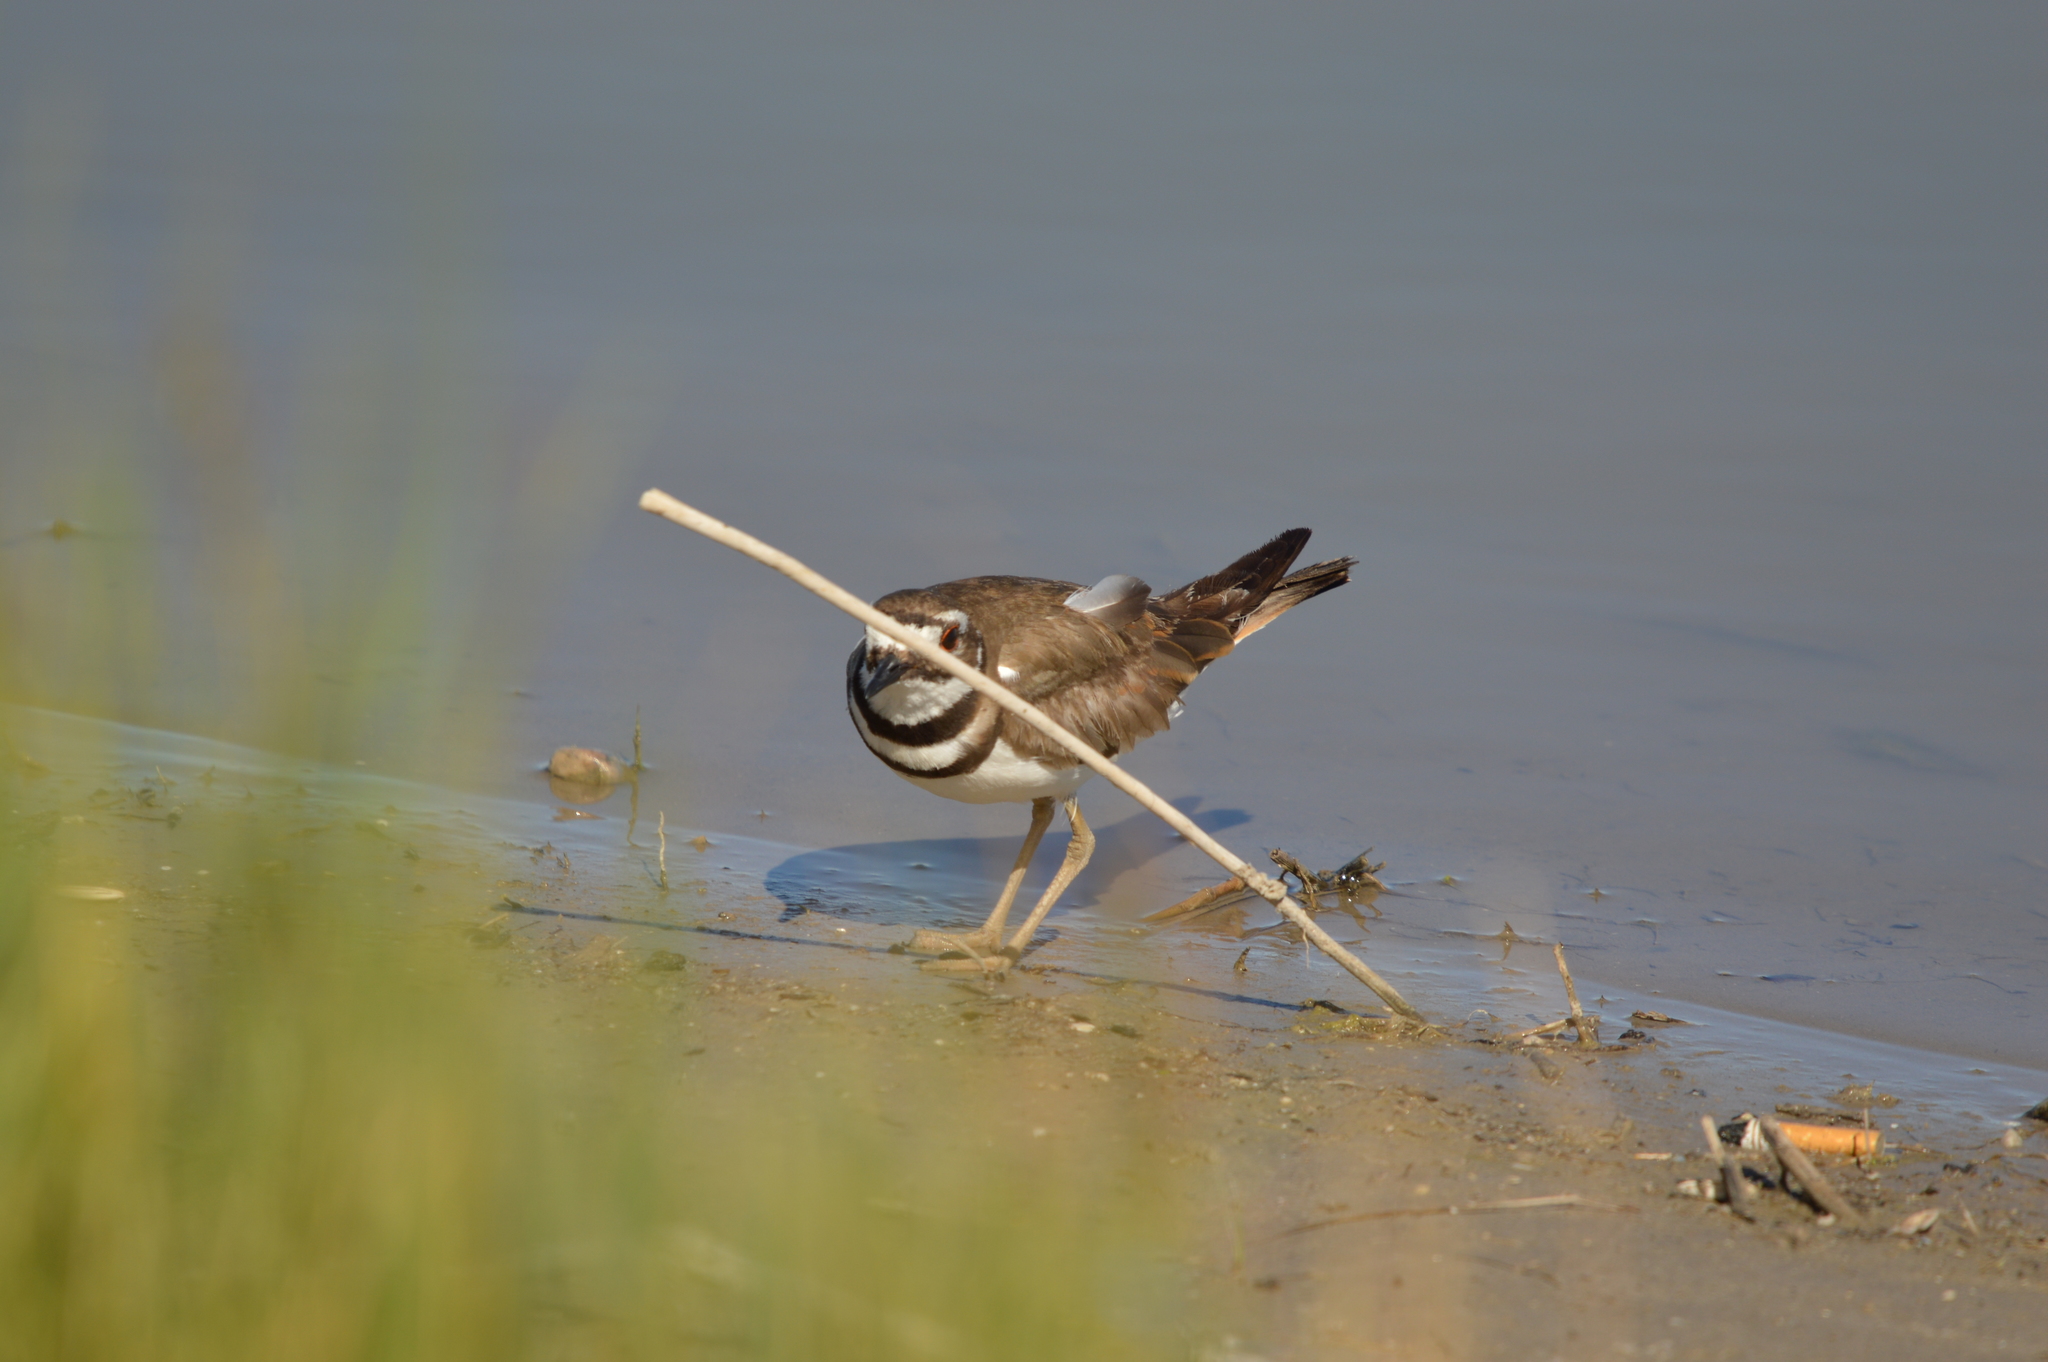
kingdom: Animalia
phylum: Chordata
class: Aves
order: Charadriiformes
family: Charadriidae
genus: Charadrius
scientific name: Charadrius vociferus
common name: Killdeer
